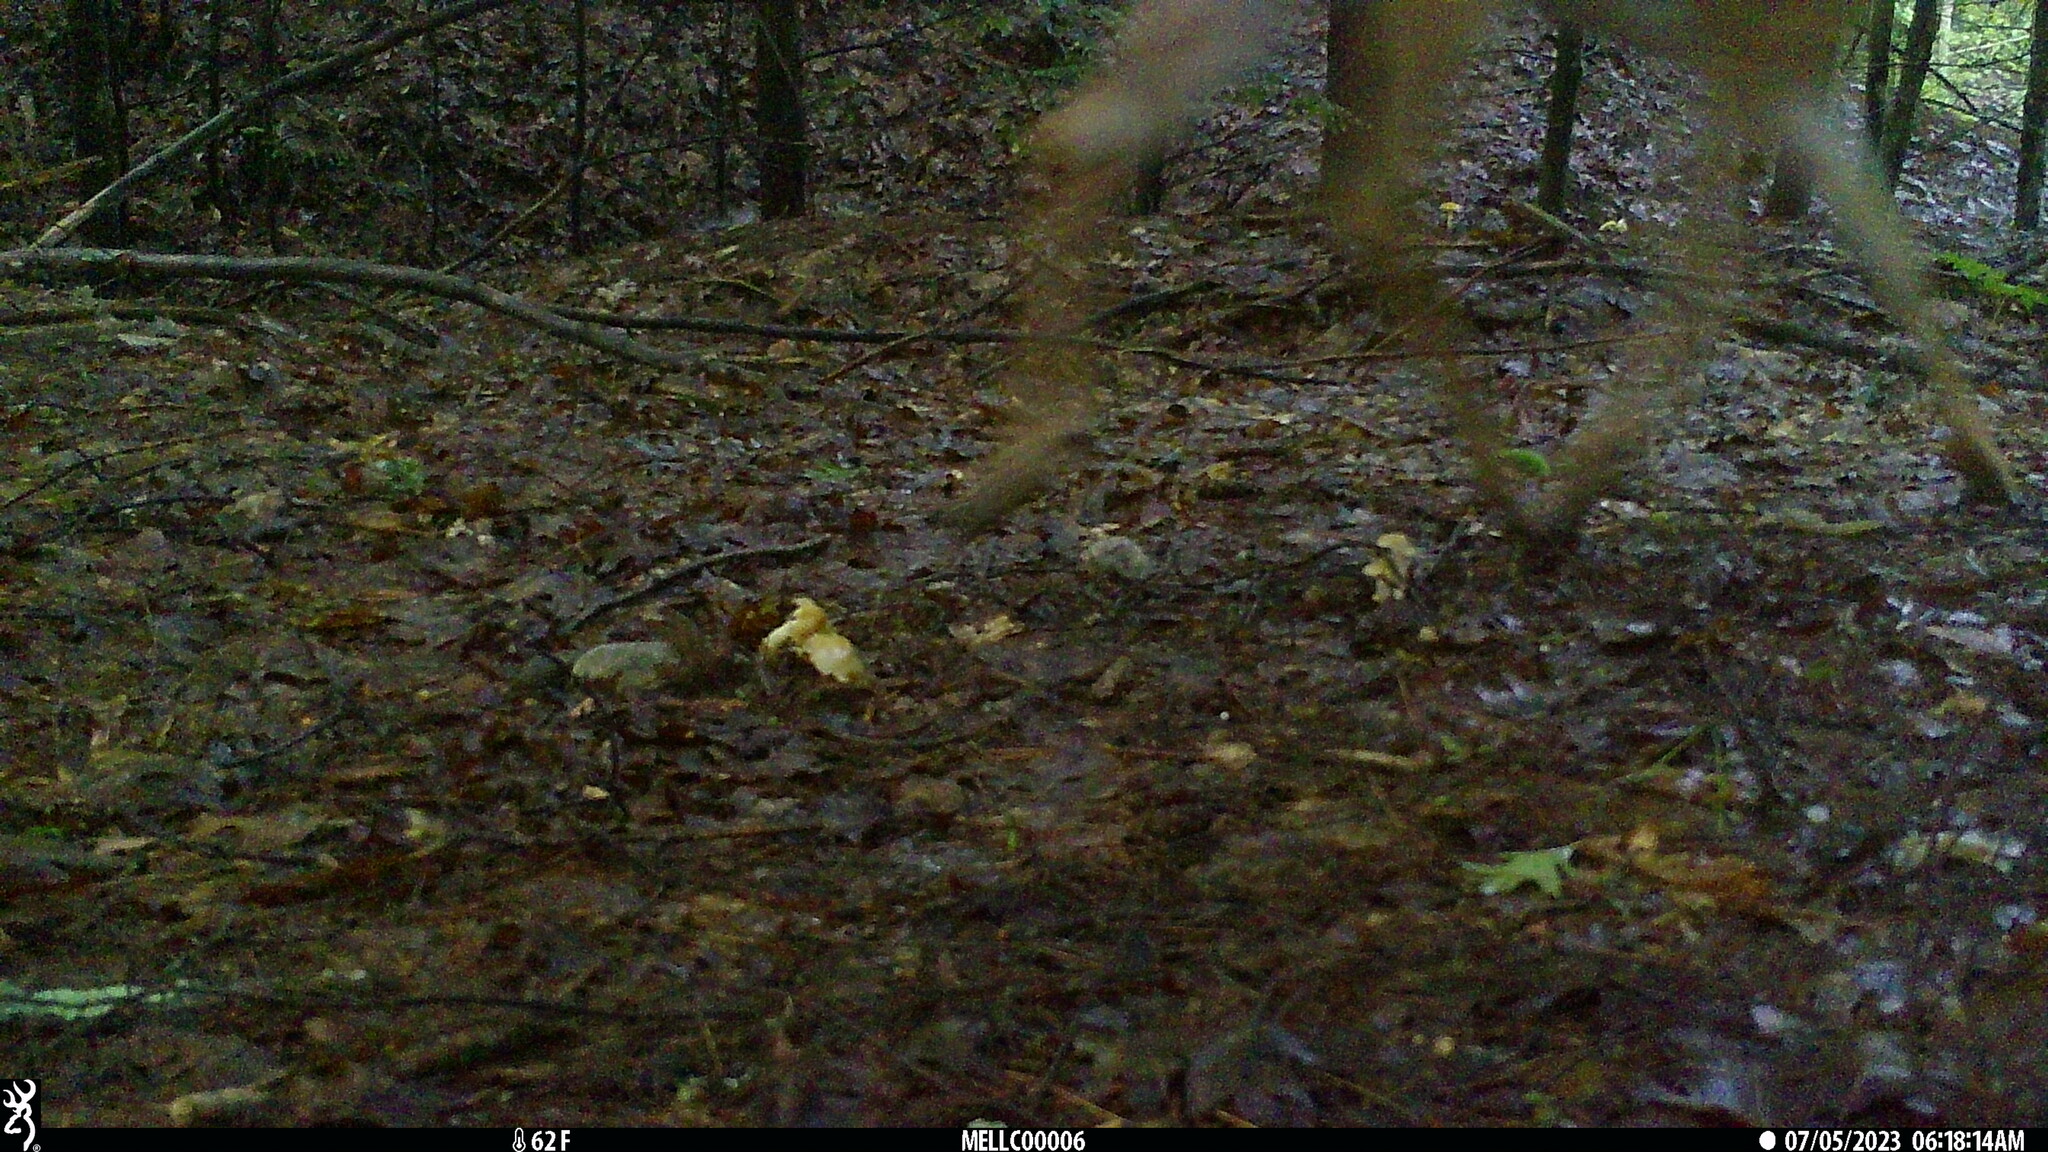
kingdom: Animalia
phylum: Chordata
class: Mammalia
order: Artiodactyla
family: Cervidae
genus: Odocoileus
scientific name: Odocoileus virginianus
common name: White-tailed deer
